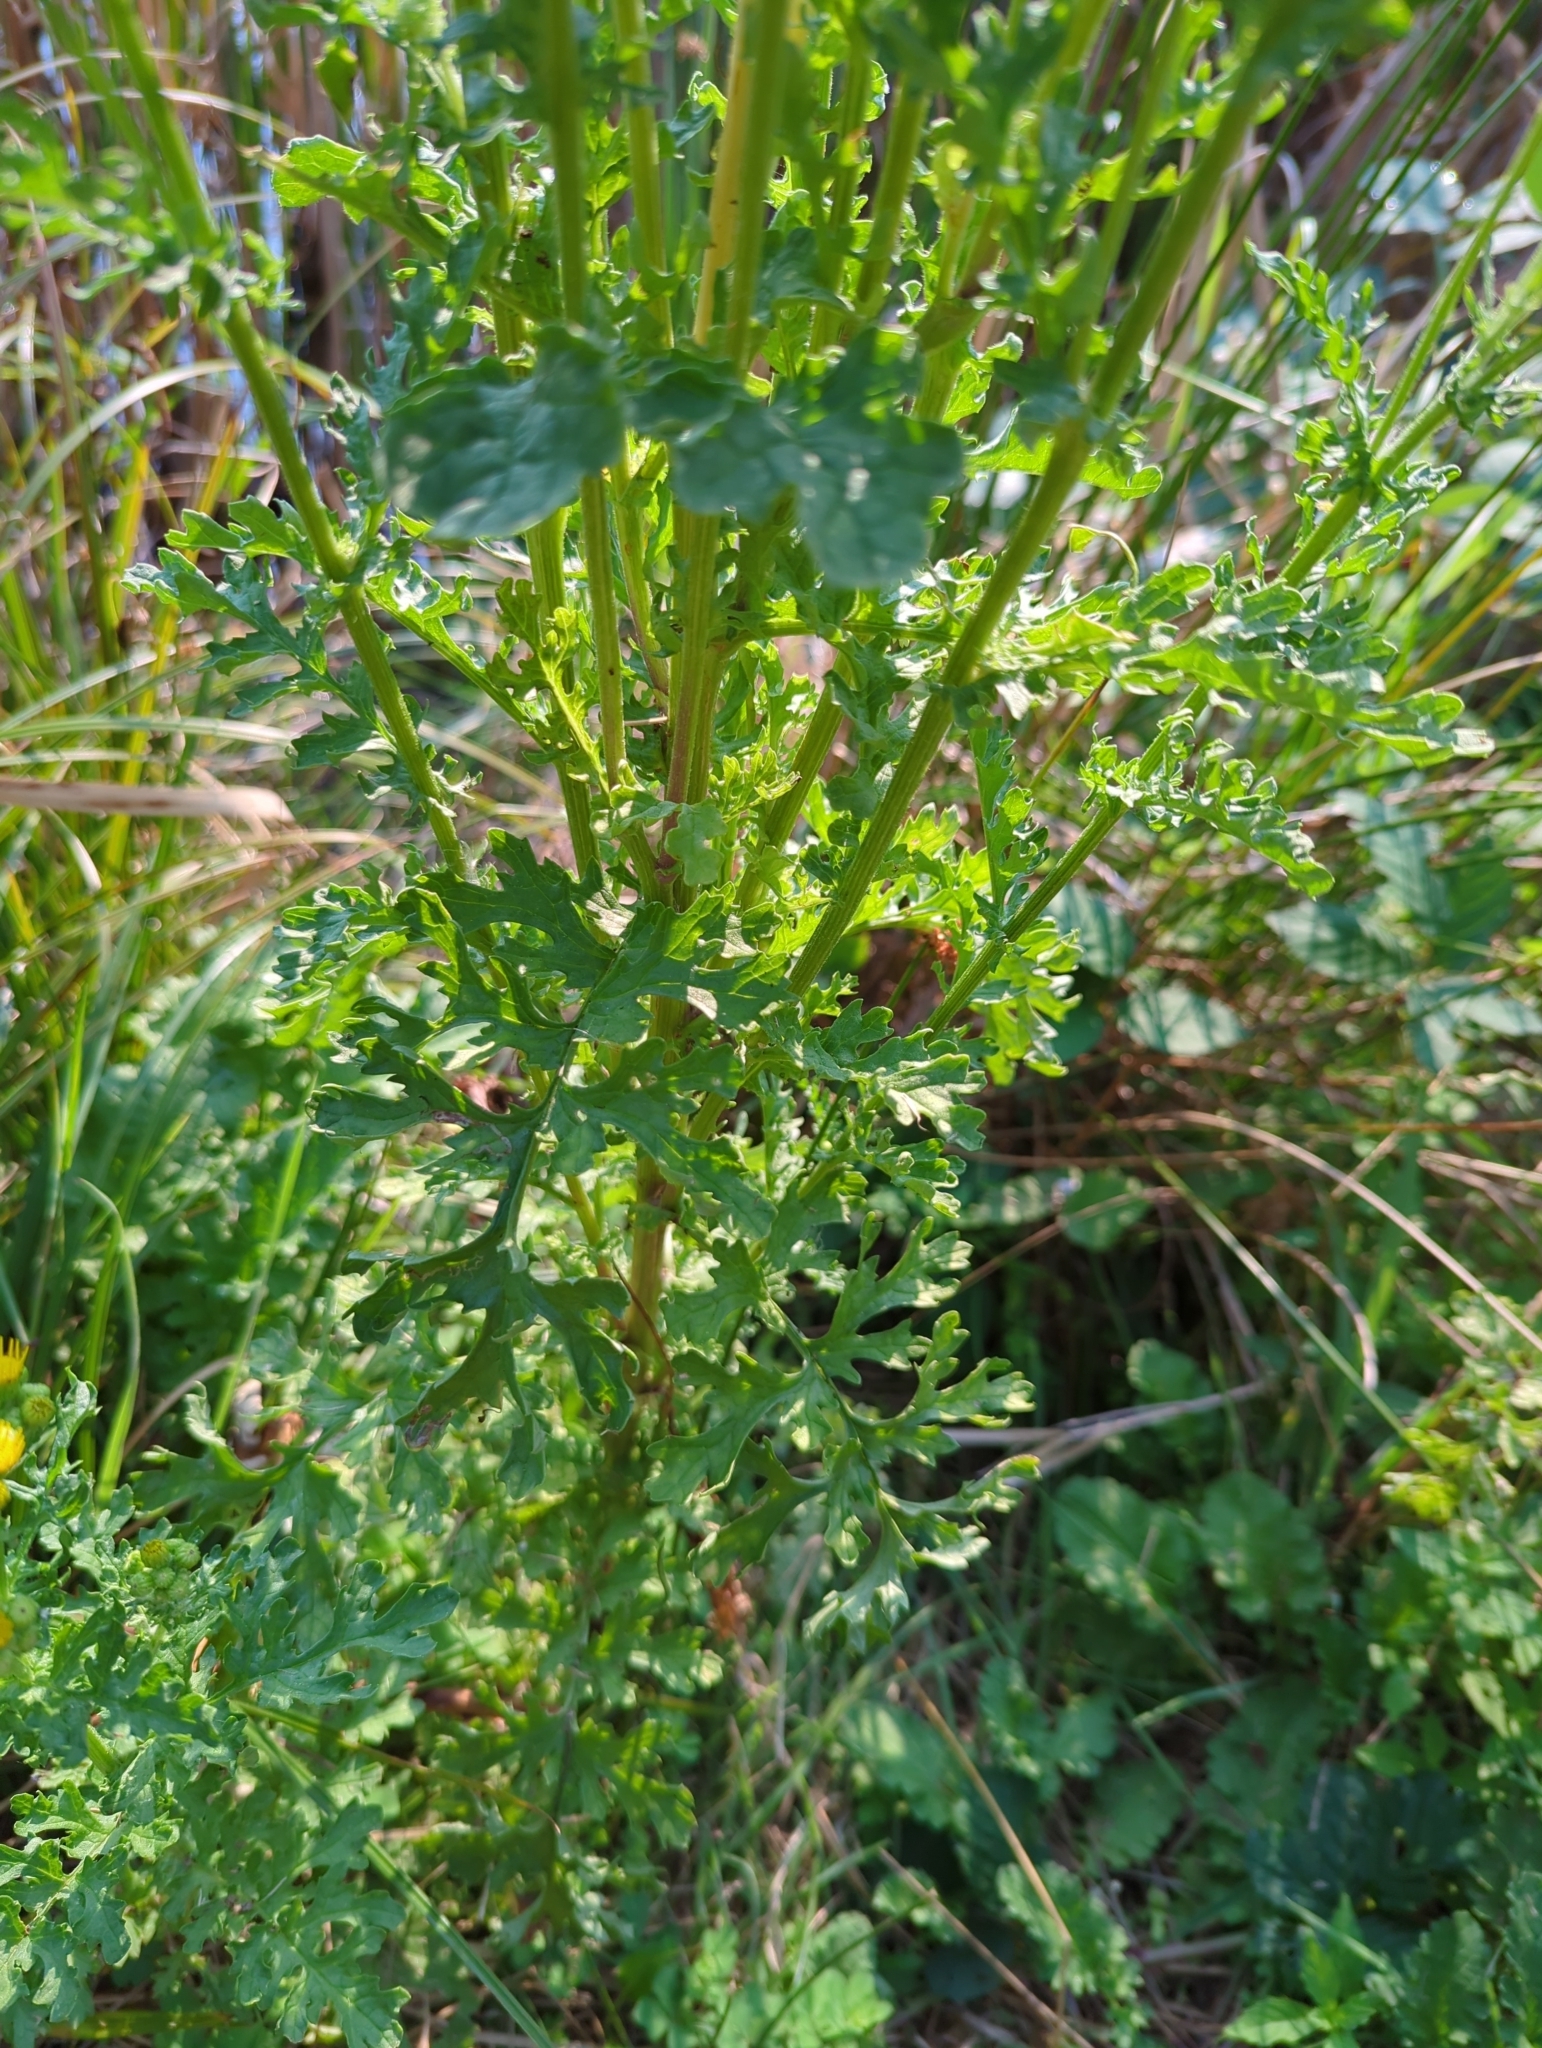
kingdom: Plantae
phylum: Tracheophyta
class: Magnoliopsida
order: Asterales
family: Asteraceae
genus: Jacobaea
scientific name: Jacobaea vulgaris
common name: Stinking willie
